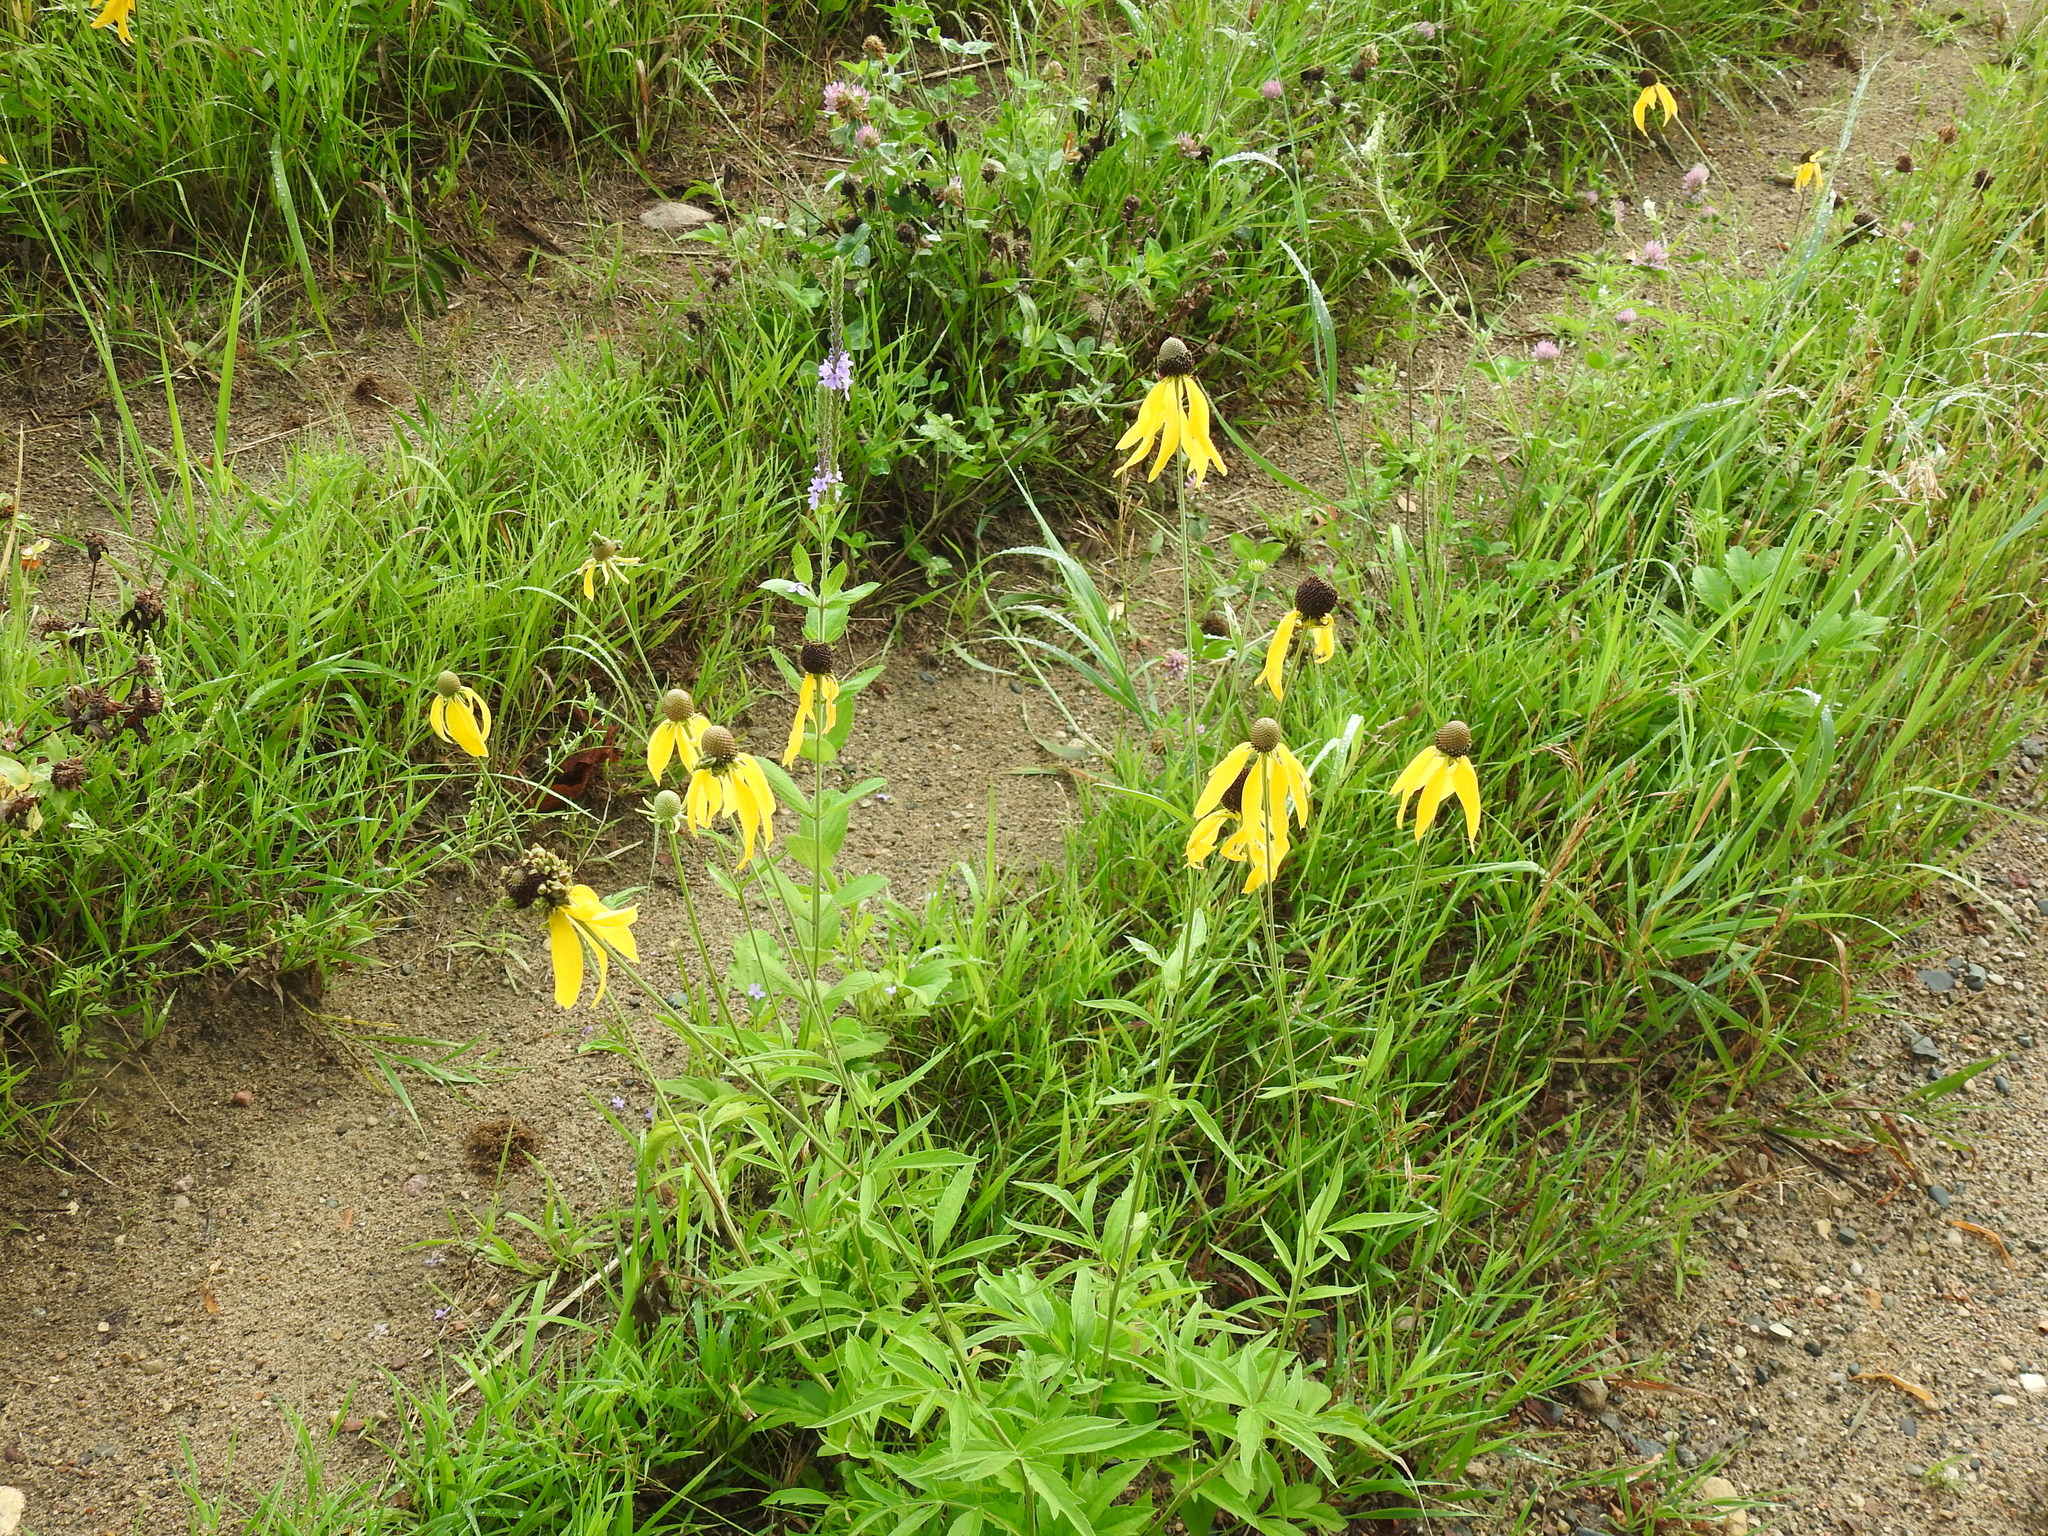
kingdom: Plantae
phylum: Tracheophyta
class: Magnoliopsida
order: Asterales
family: Asteraceae
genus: Ratibida
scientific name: Ratibida pinnata
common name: Drooping prairie-coneflower
